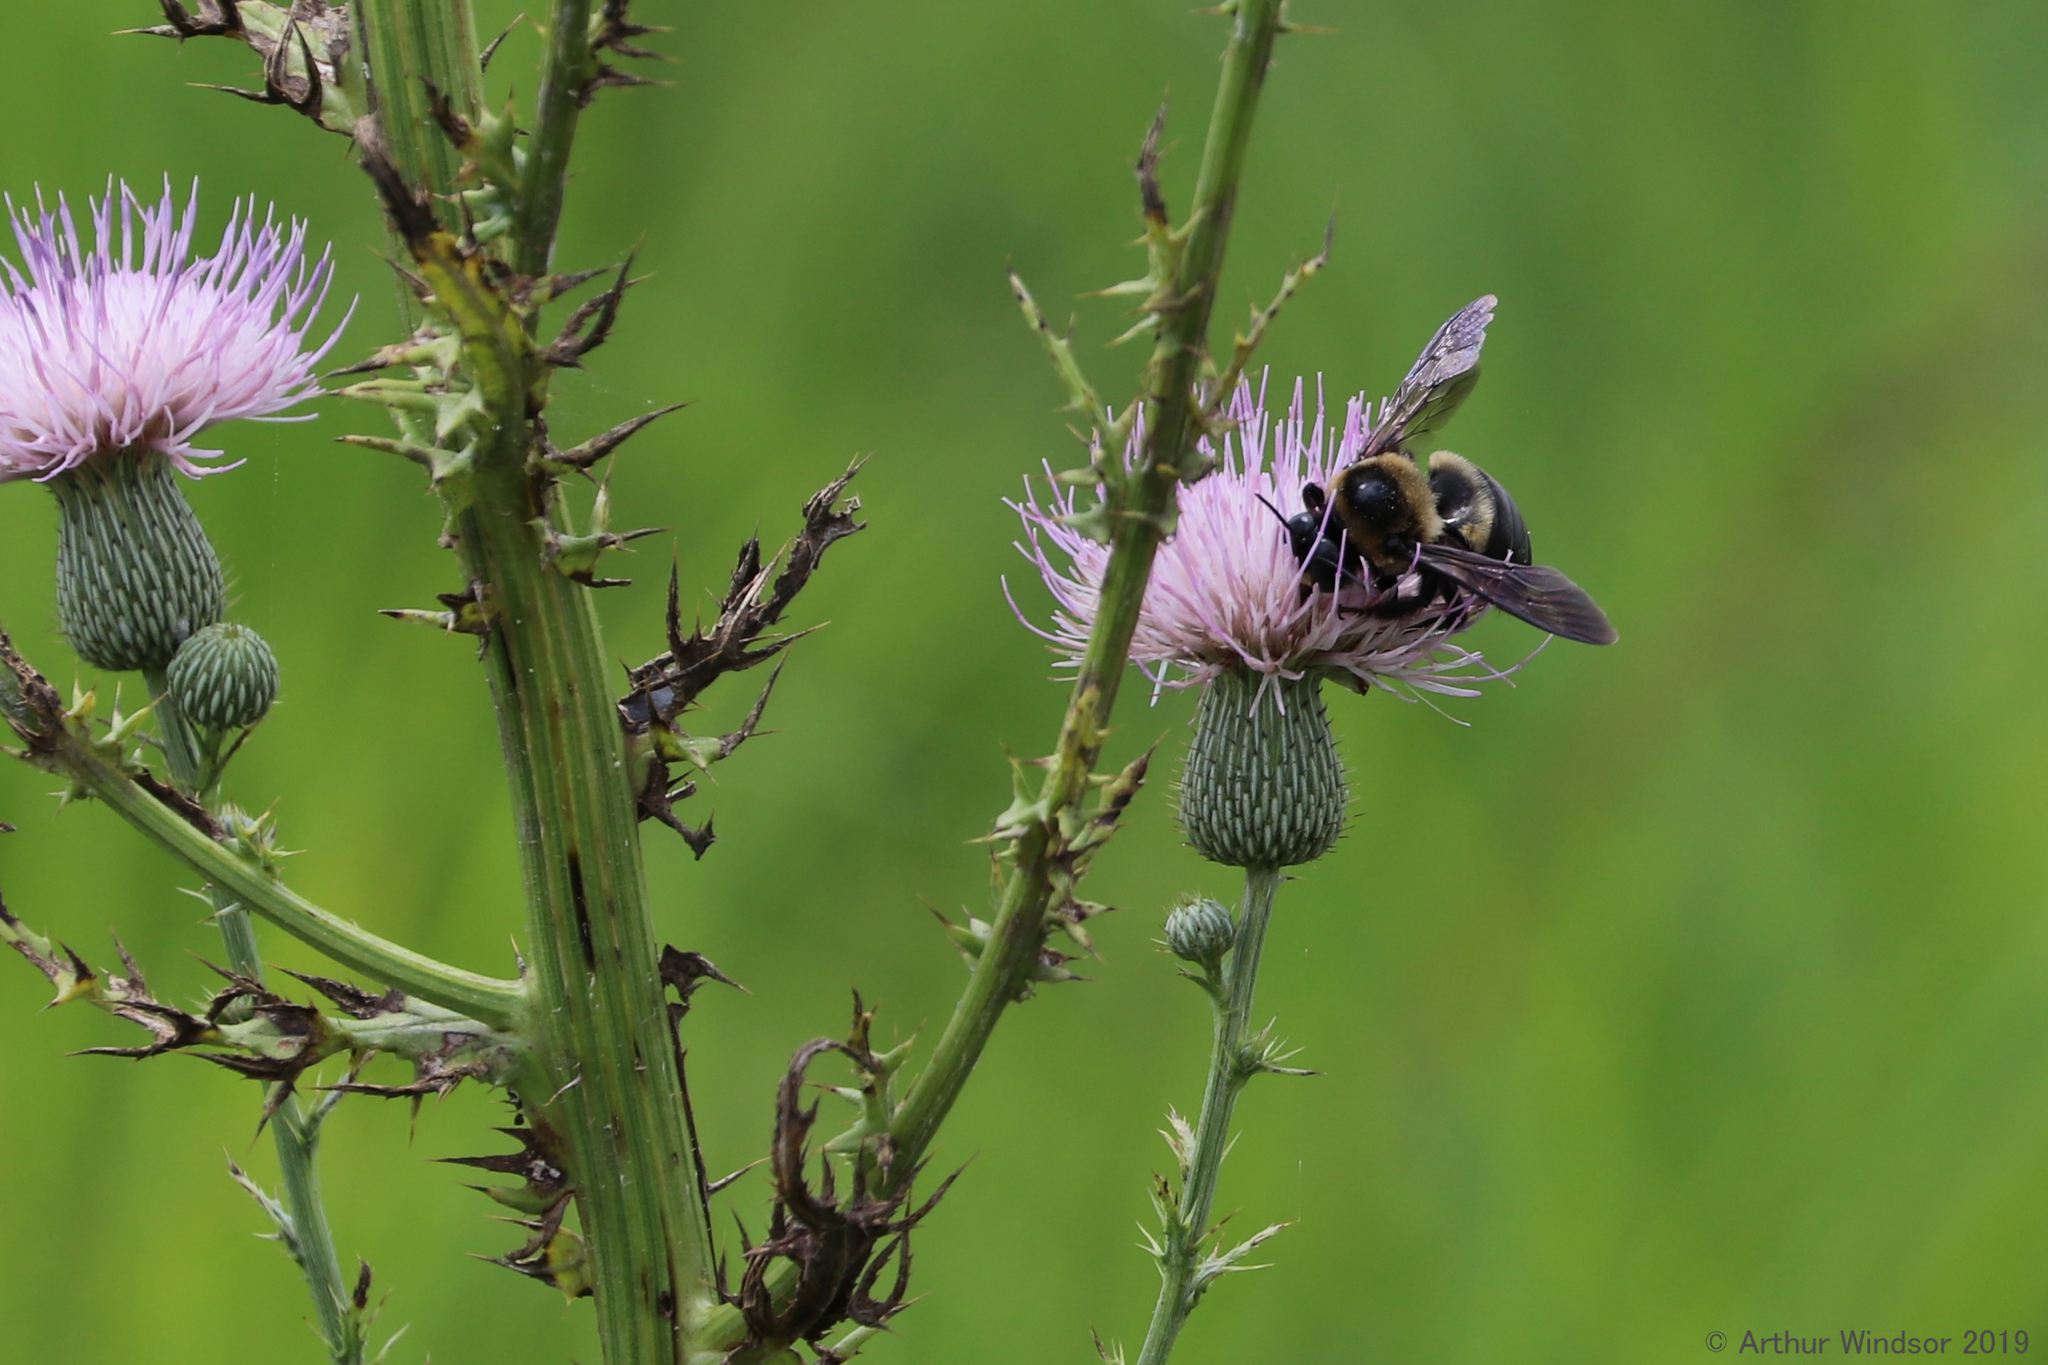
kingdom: Animalia
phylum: Arthropoda
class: Insecta
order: Hymenoptera
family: Apidae
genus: Xylocopa
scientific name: Xylocopa virginica
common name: Carpenter bee
